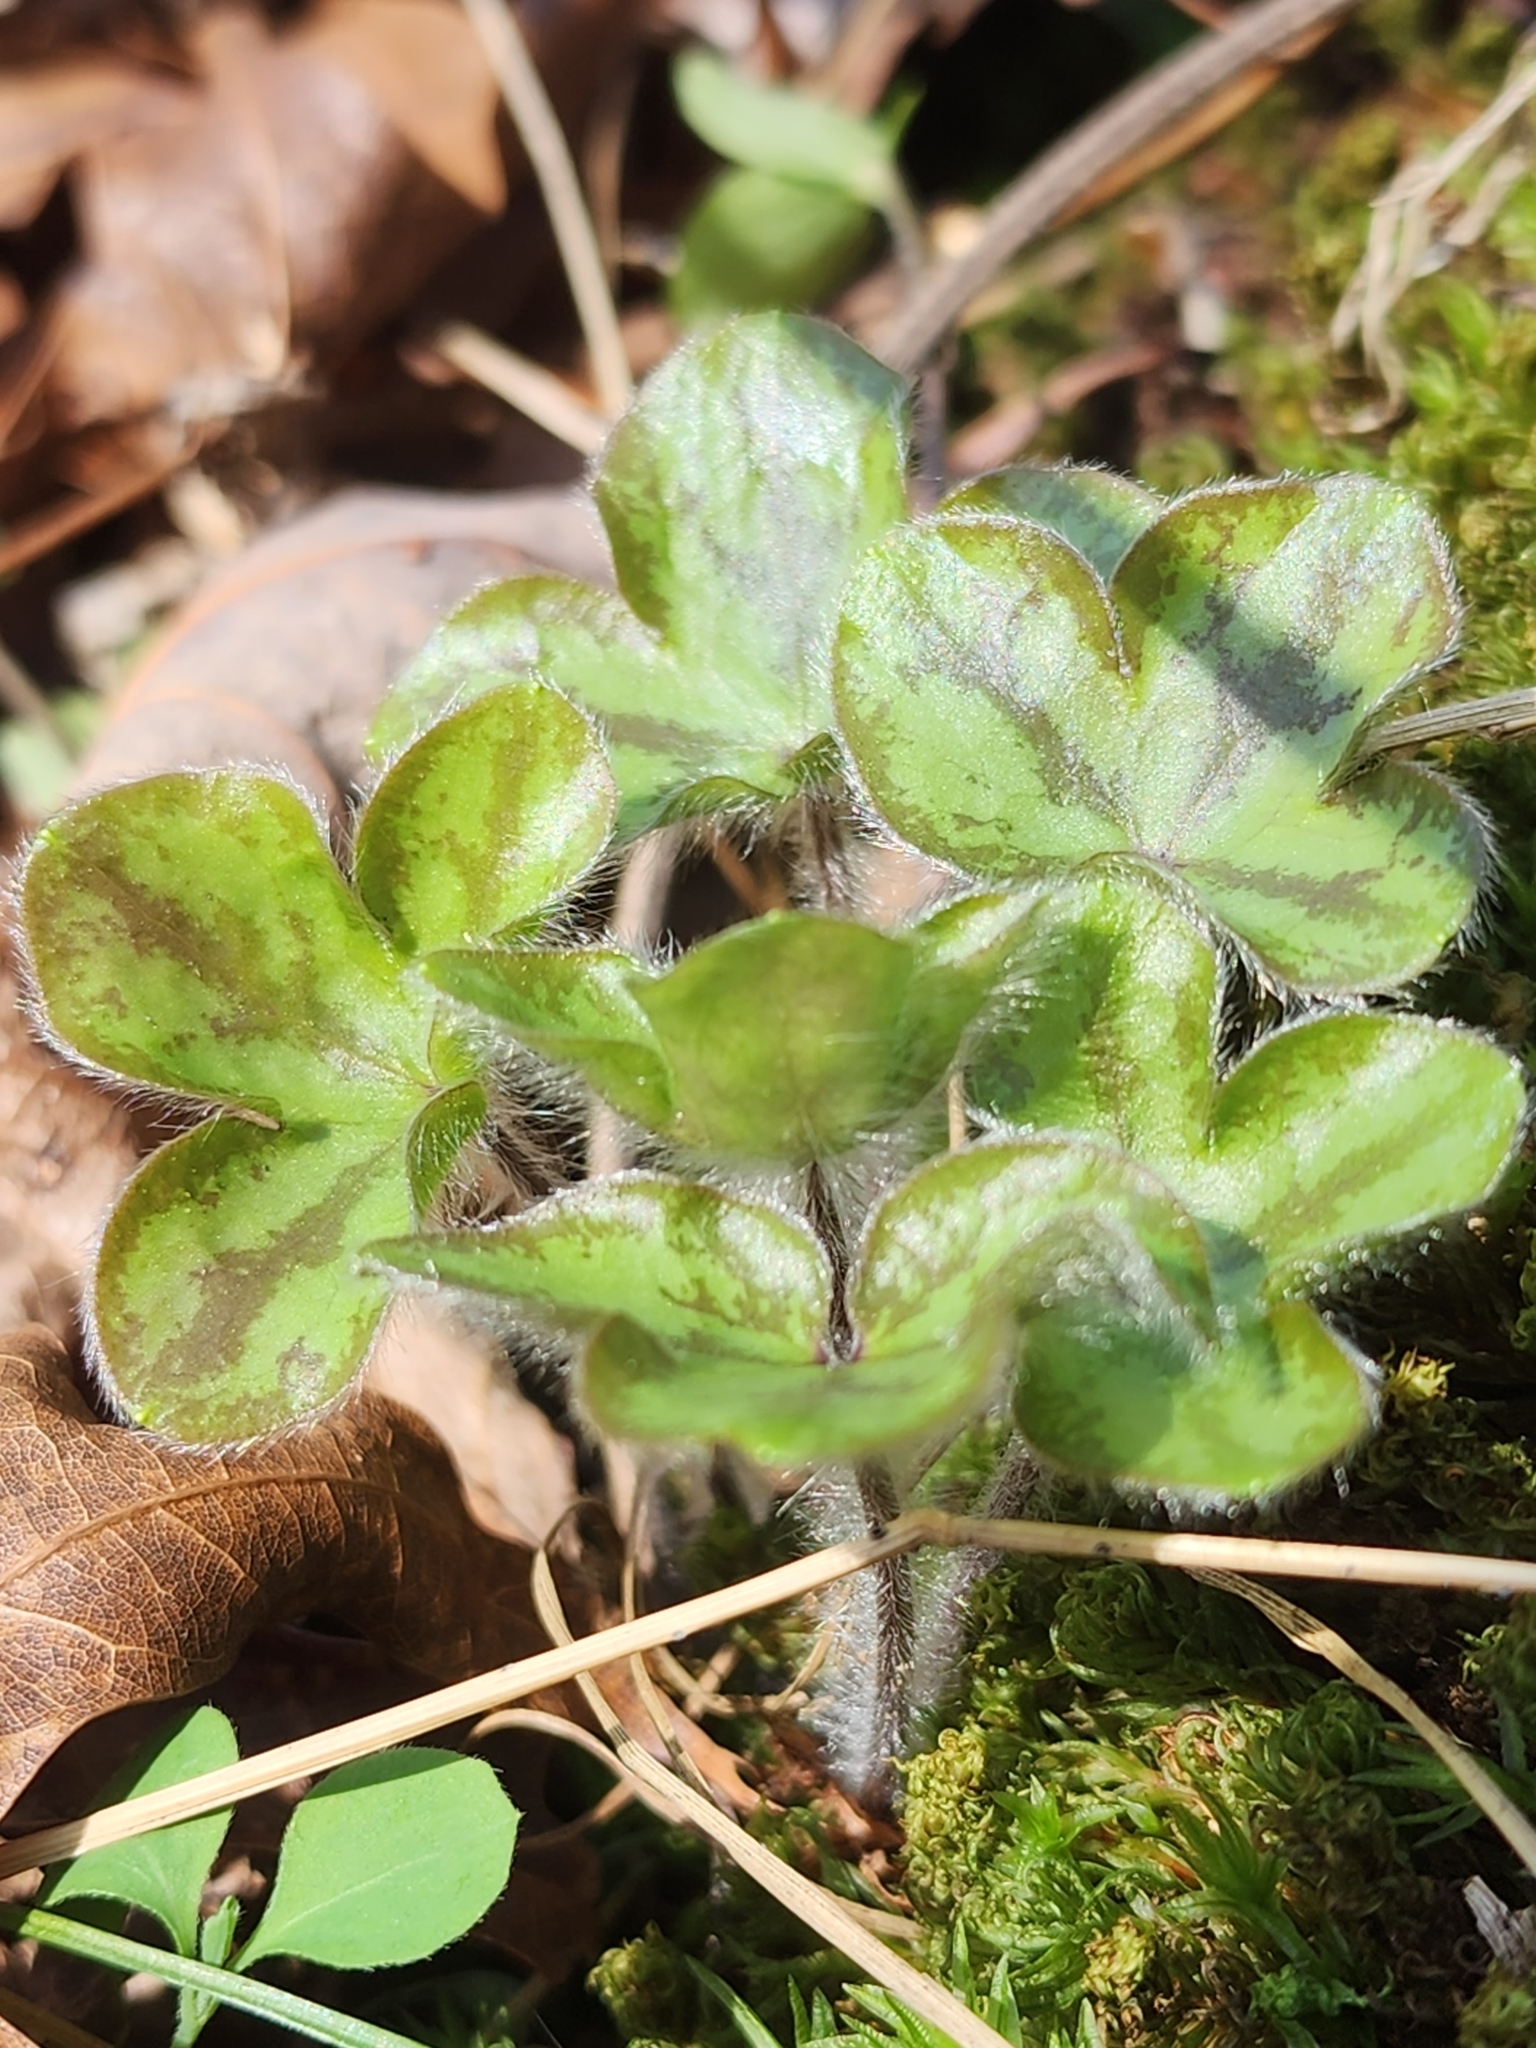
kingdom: Plantae
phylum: Tracheophyta
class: Magnoliopsida
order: Ranunculales
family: Ranunculaceae
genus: Hepatica
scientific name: Hepatica americana
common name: American hepatica
